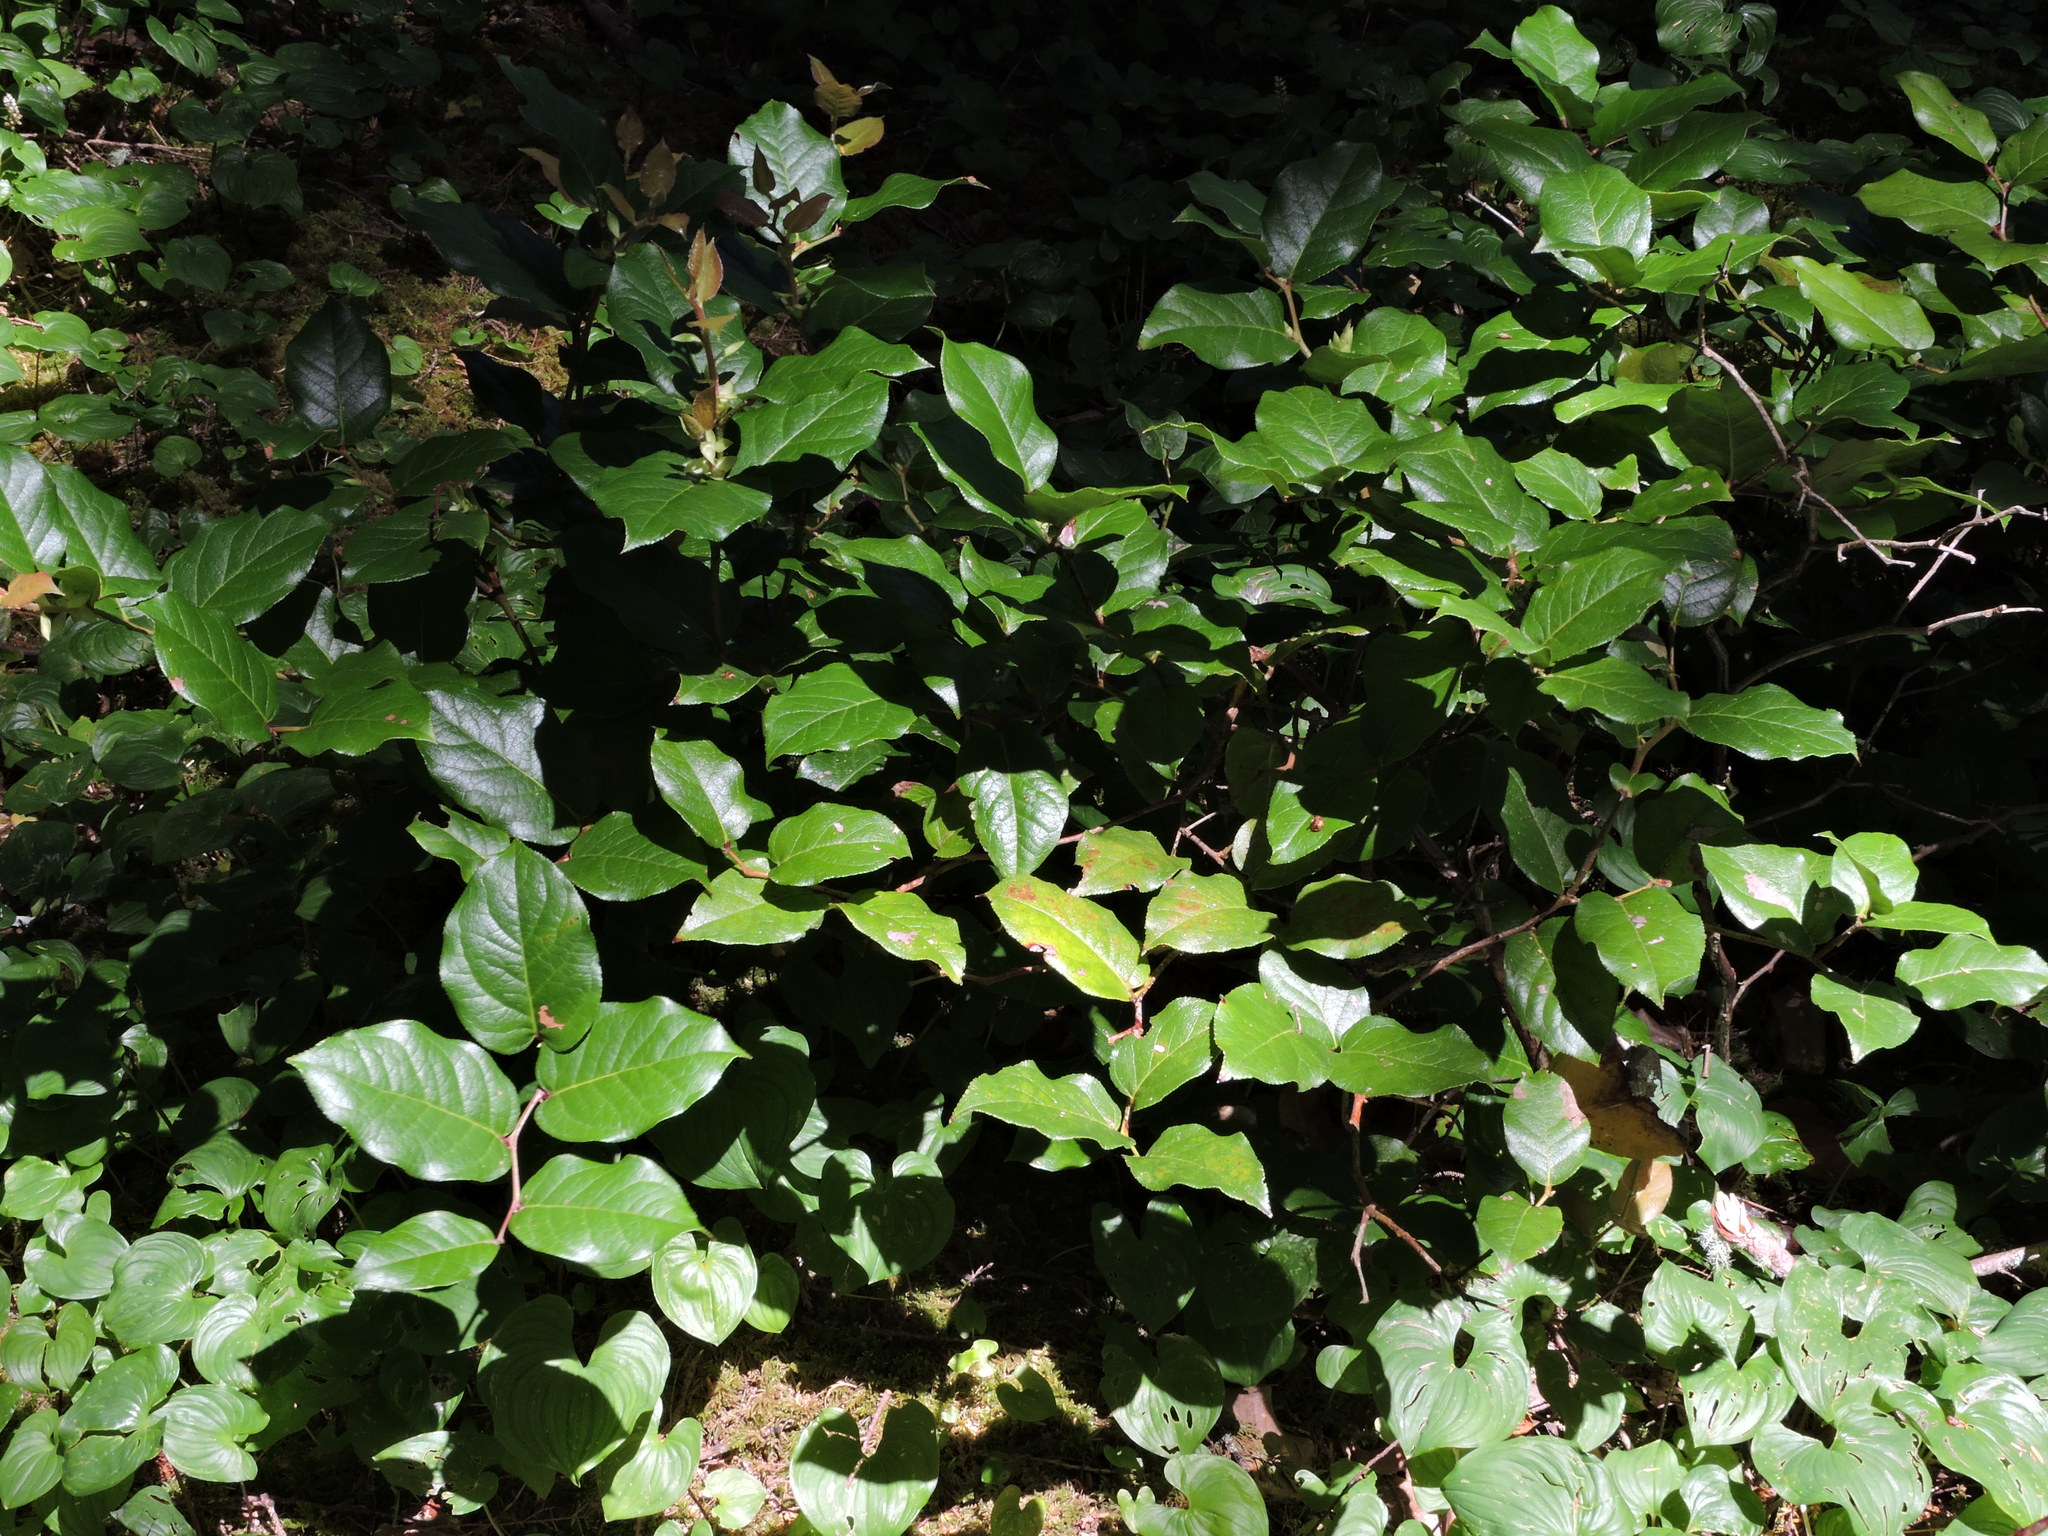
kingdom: Plantae
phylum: Tracheophyta
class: Magnoliopsida
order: Ericales
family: Ericaceae
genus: Gaultheria
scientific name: Gaultheria shallon
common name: Shallon
